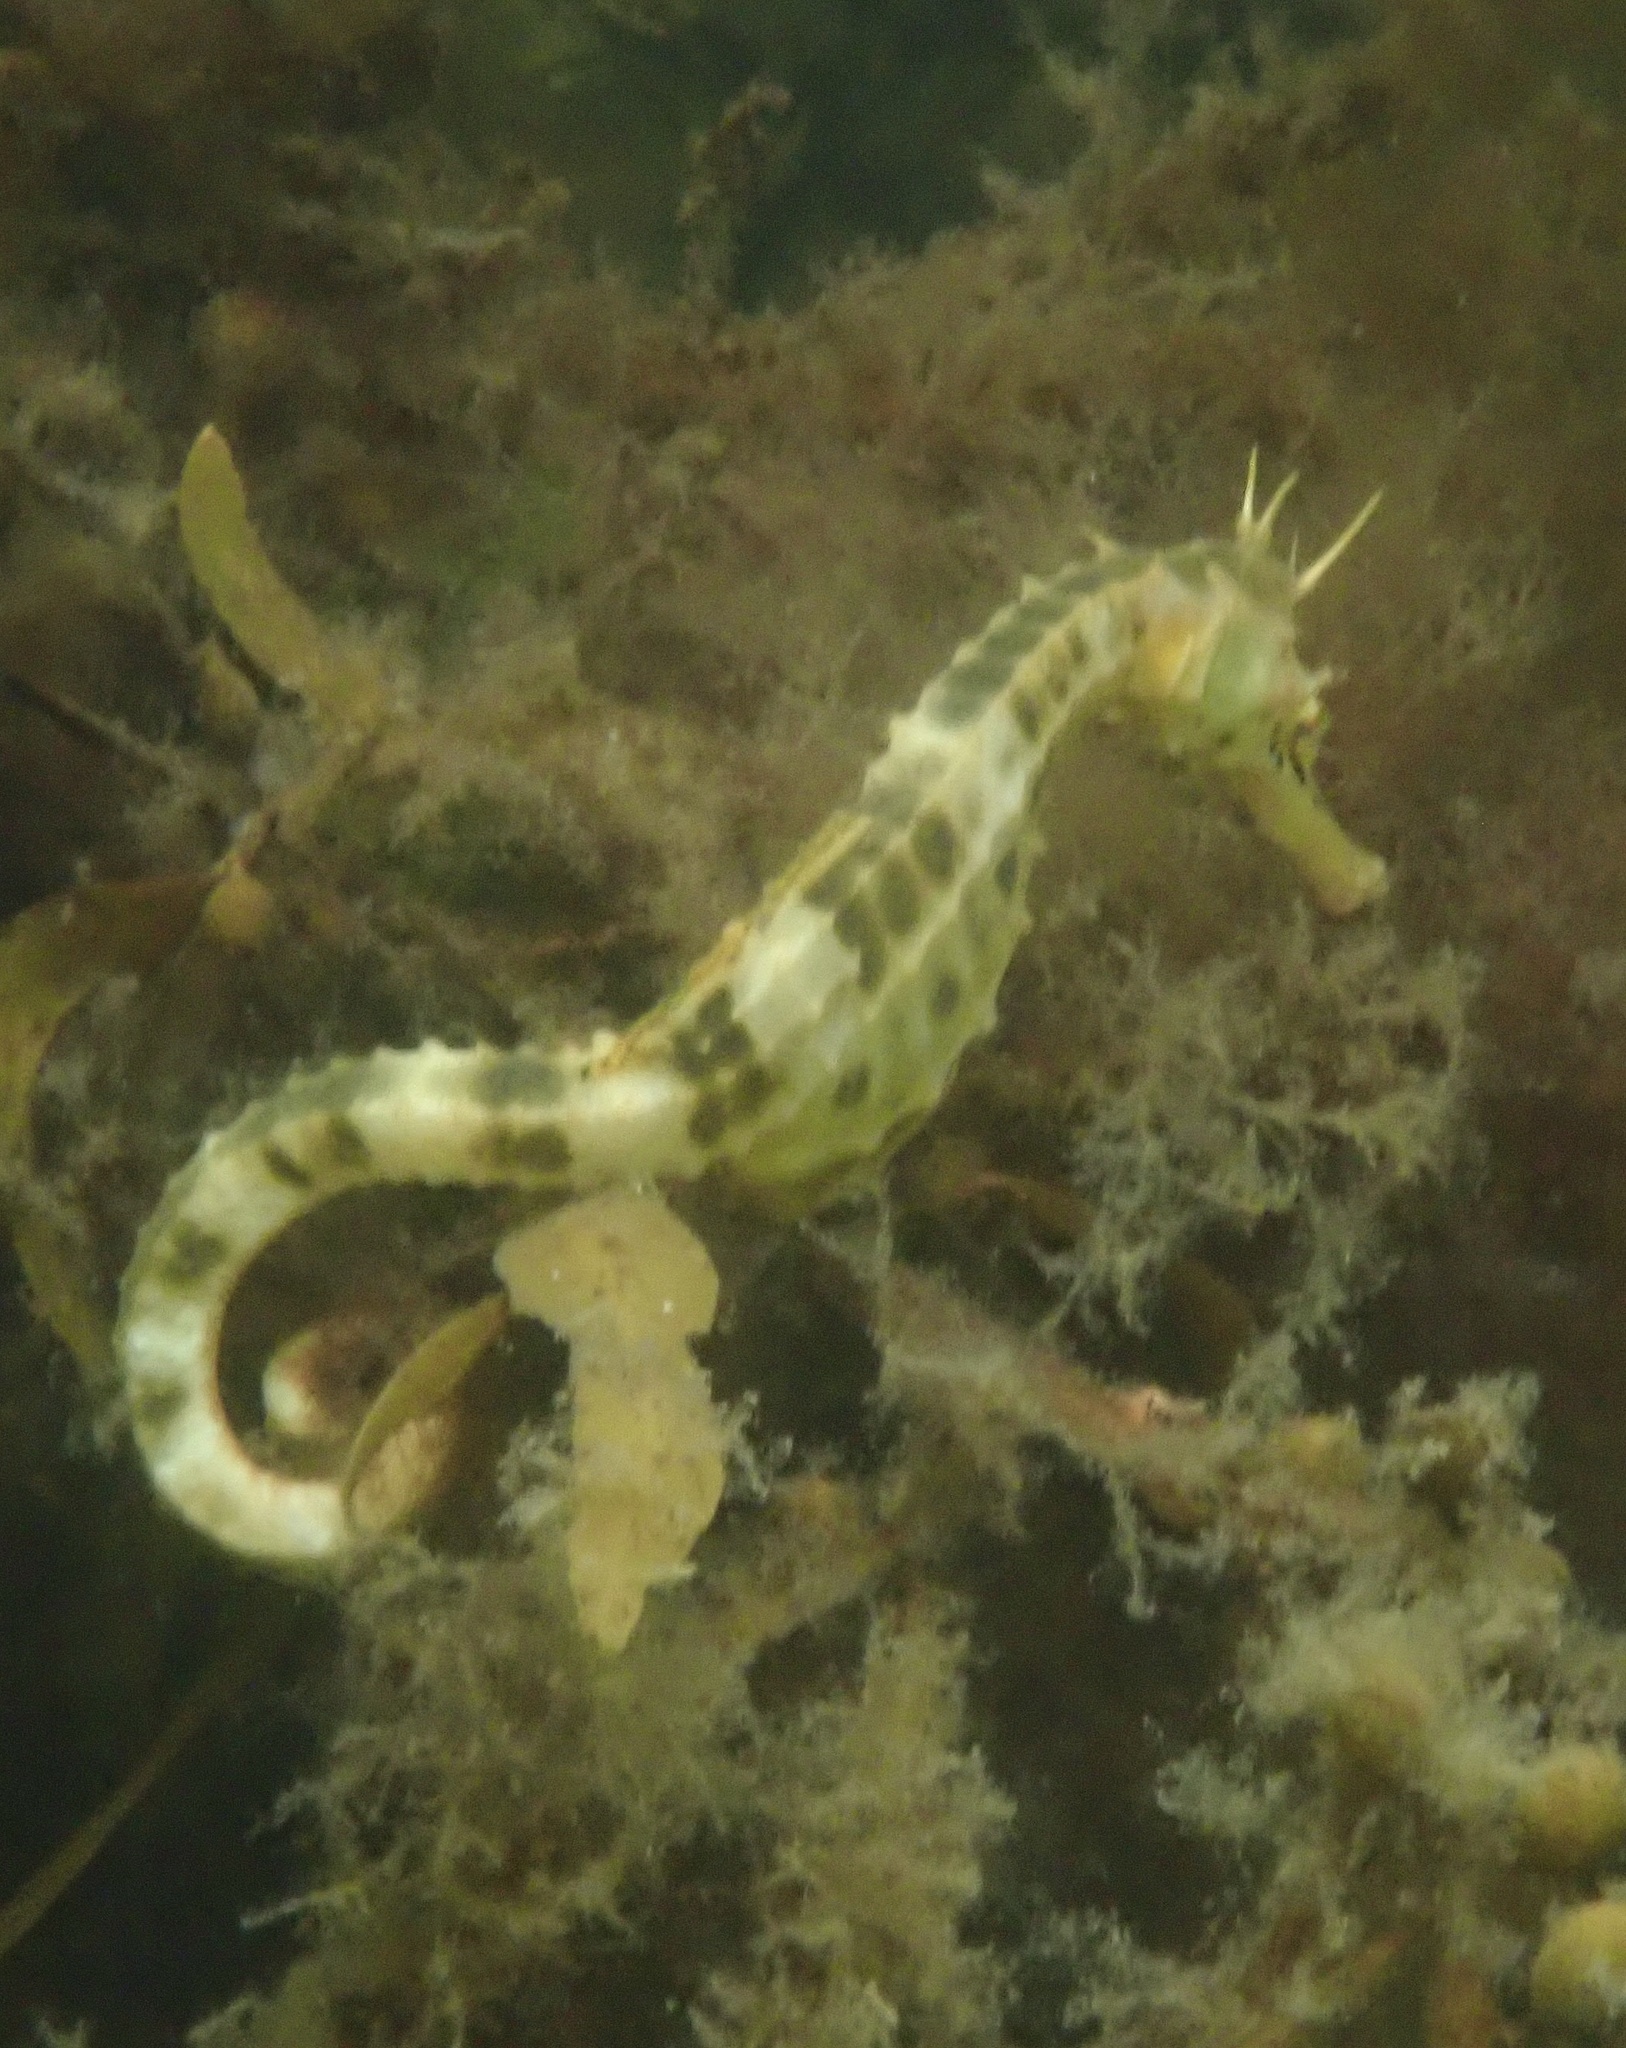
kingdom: Animalia
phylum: Chordata
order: Syngnathiformes
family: Syngnathidae
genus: Hippocampus
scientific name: Hippocampus abdominalis
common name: Big-belly seahorse
